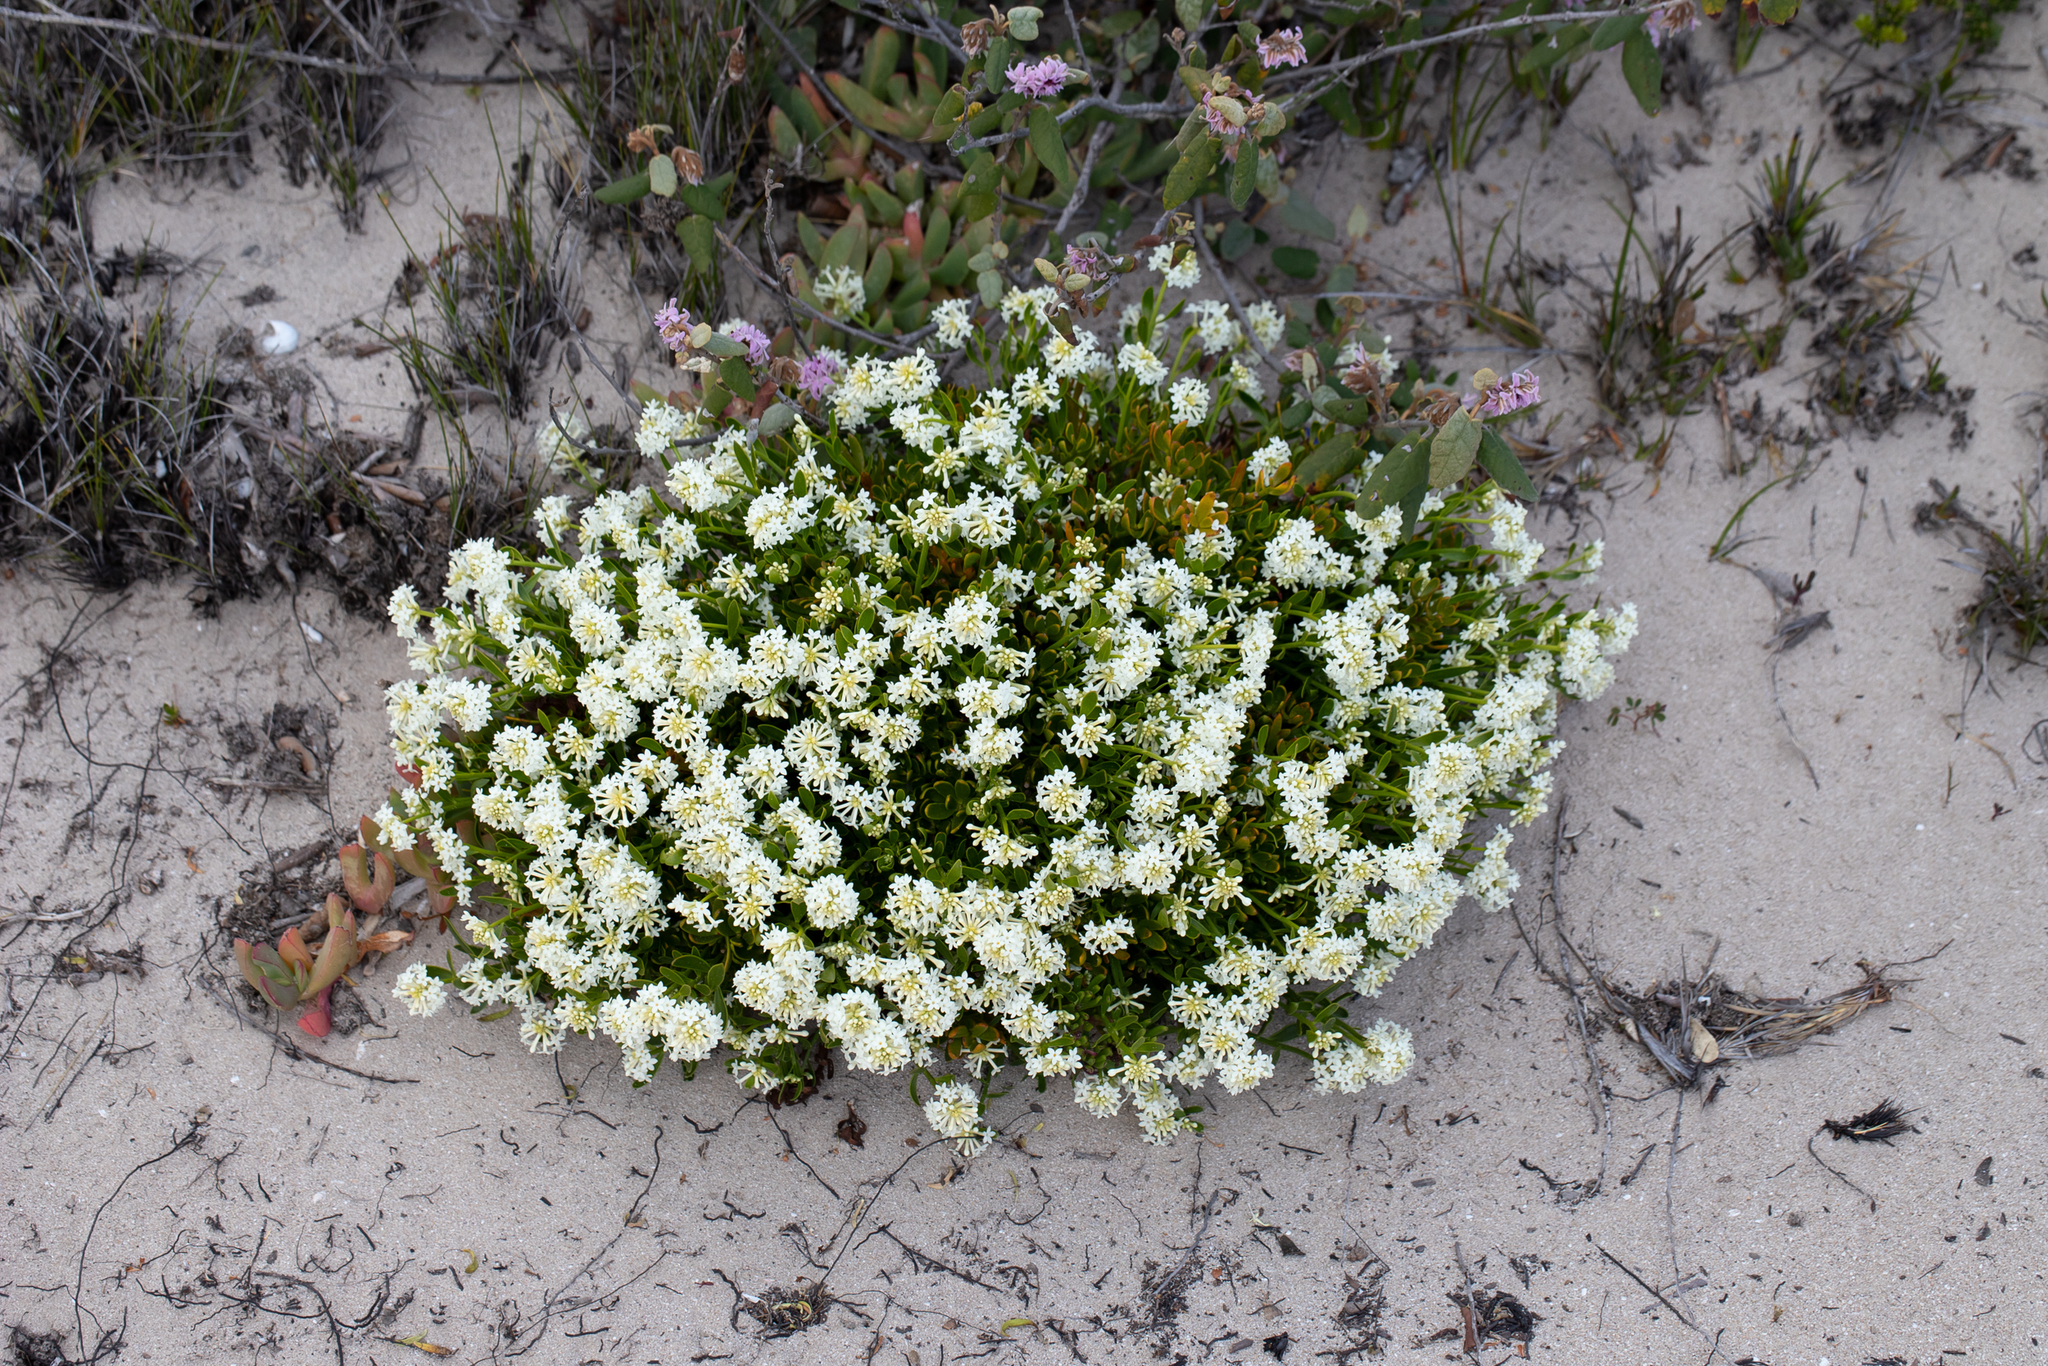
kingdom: Plantae
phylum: Tracheophyta
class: Magnoliopsida
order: Celastrales
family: Celastraceae
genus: Stackhousia
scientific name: Stackhousia spathulata
